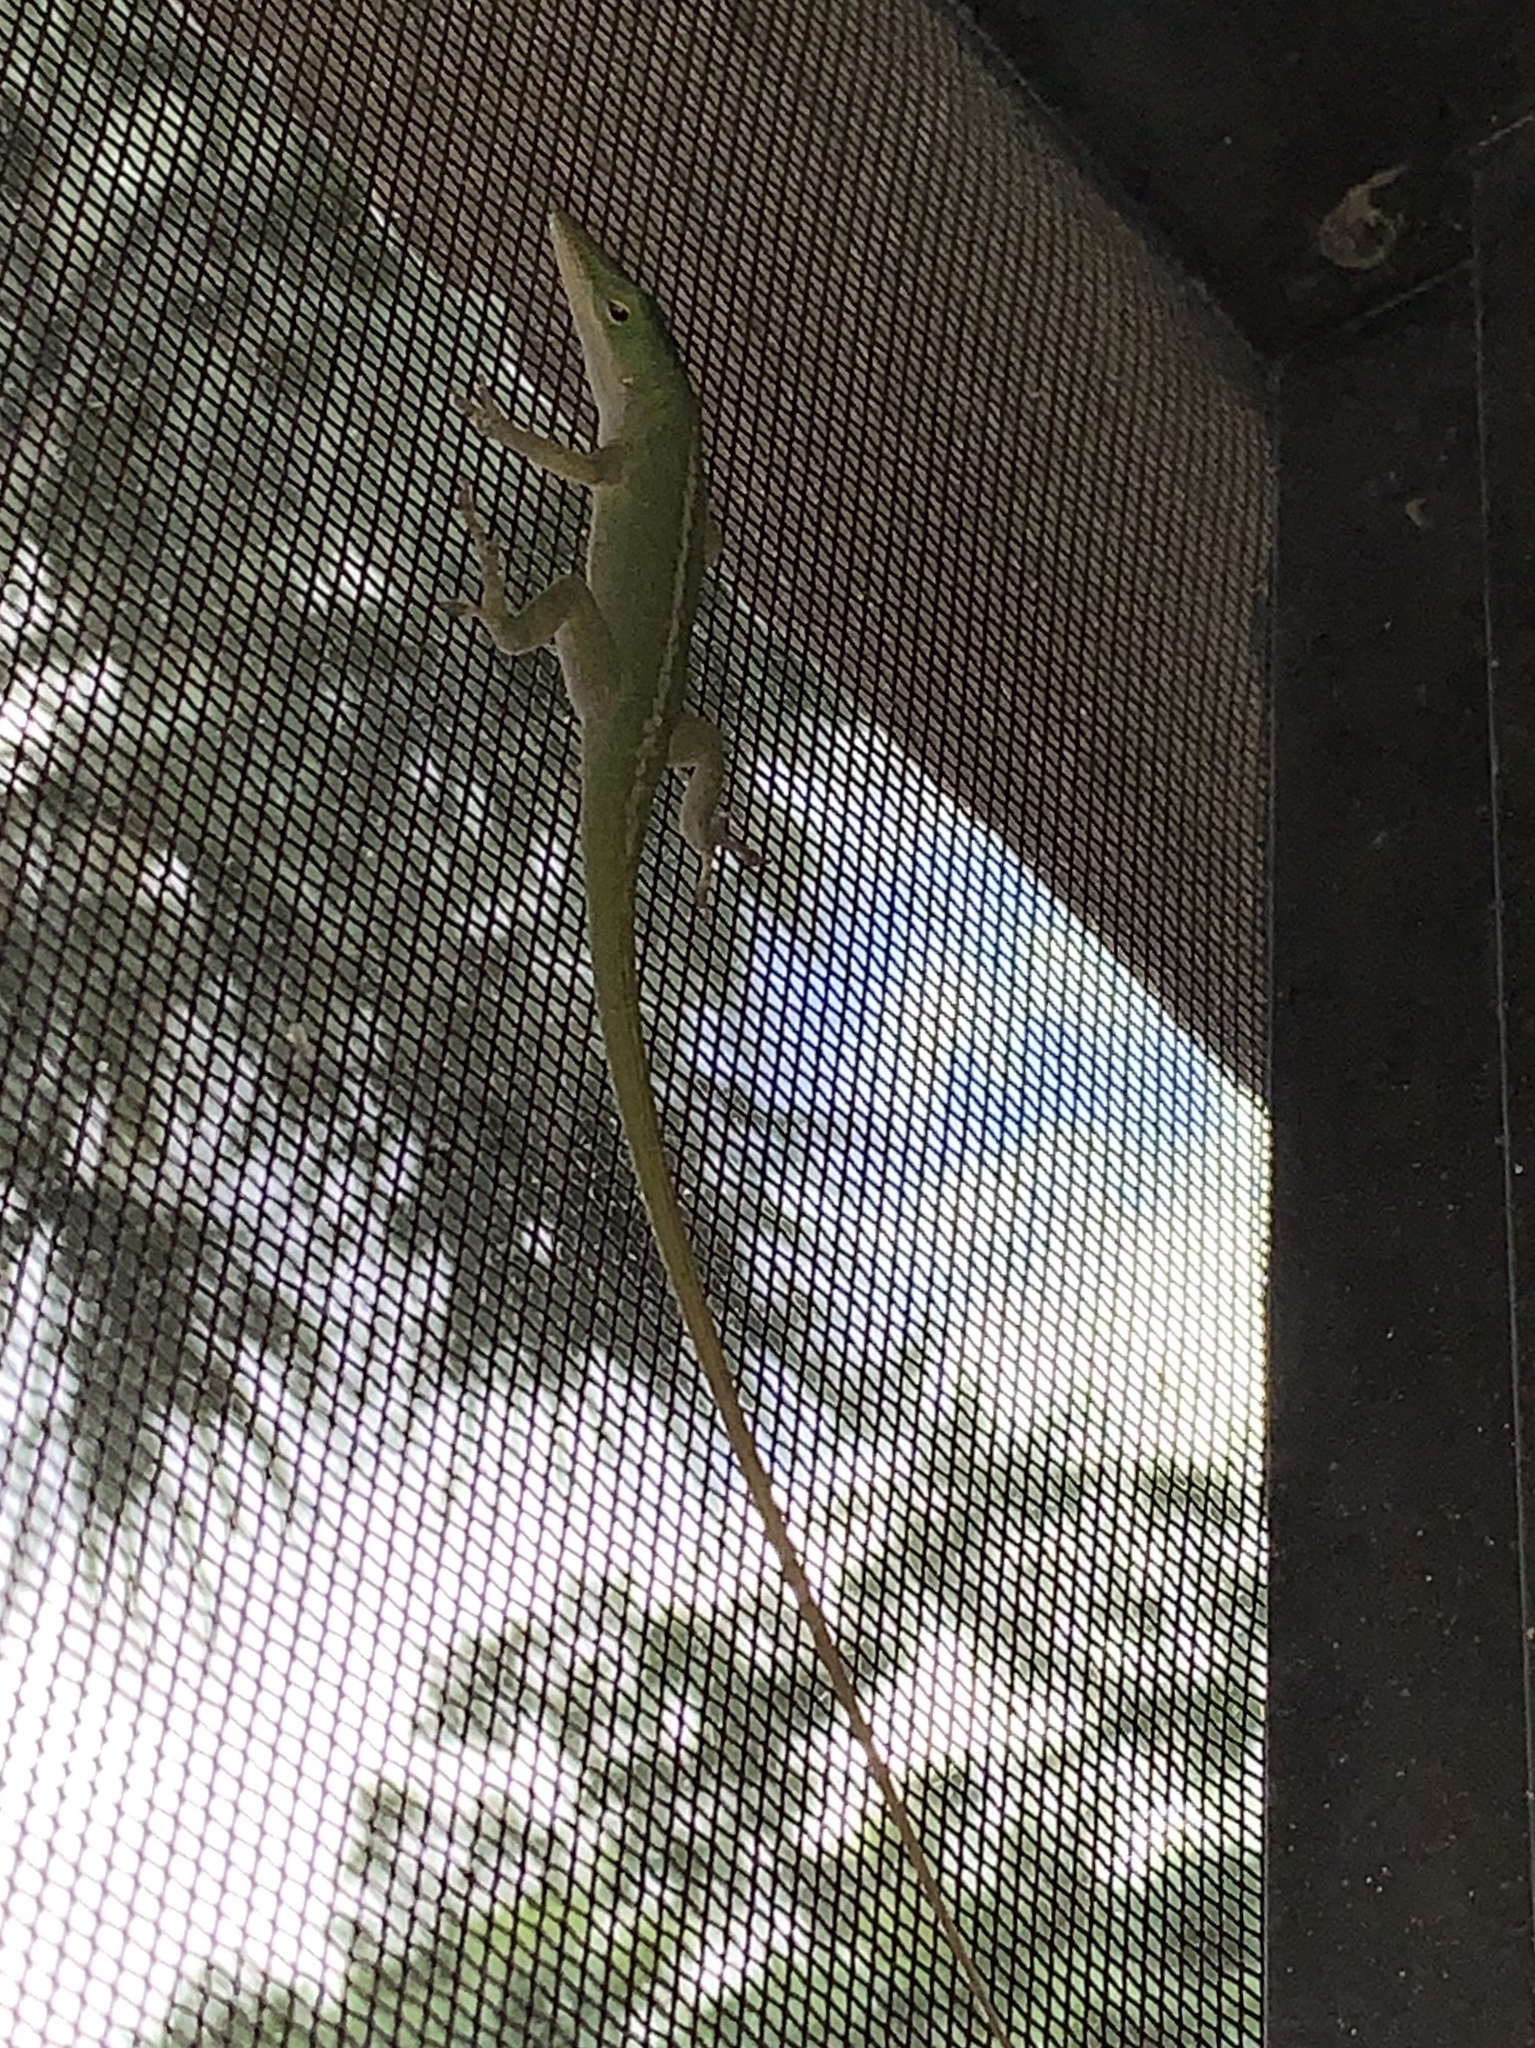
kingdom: Animalia
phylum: Chordata
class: Squamata
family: Dactyloidae
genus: Anolis
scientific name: Anolis carolinensis
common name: Green anole
